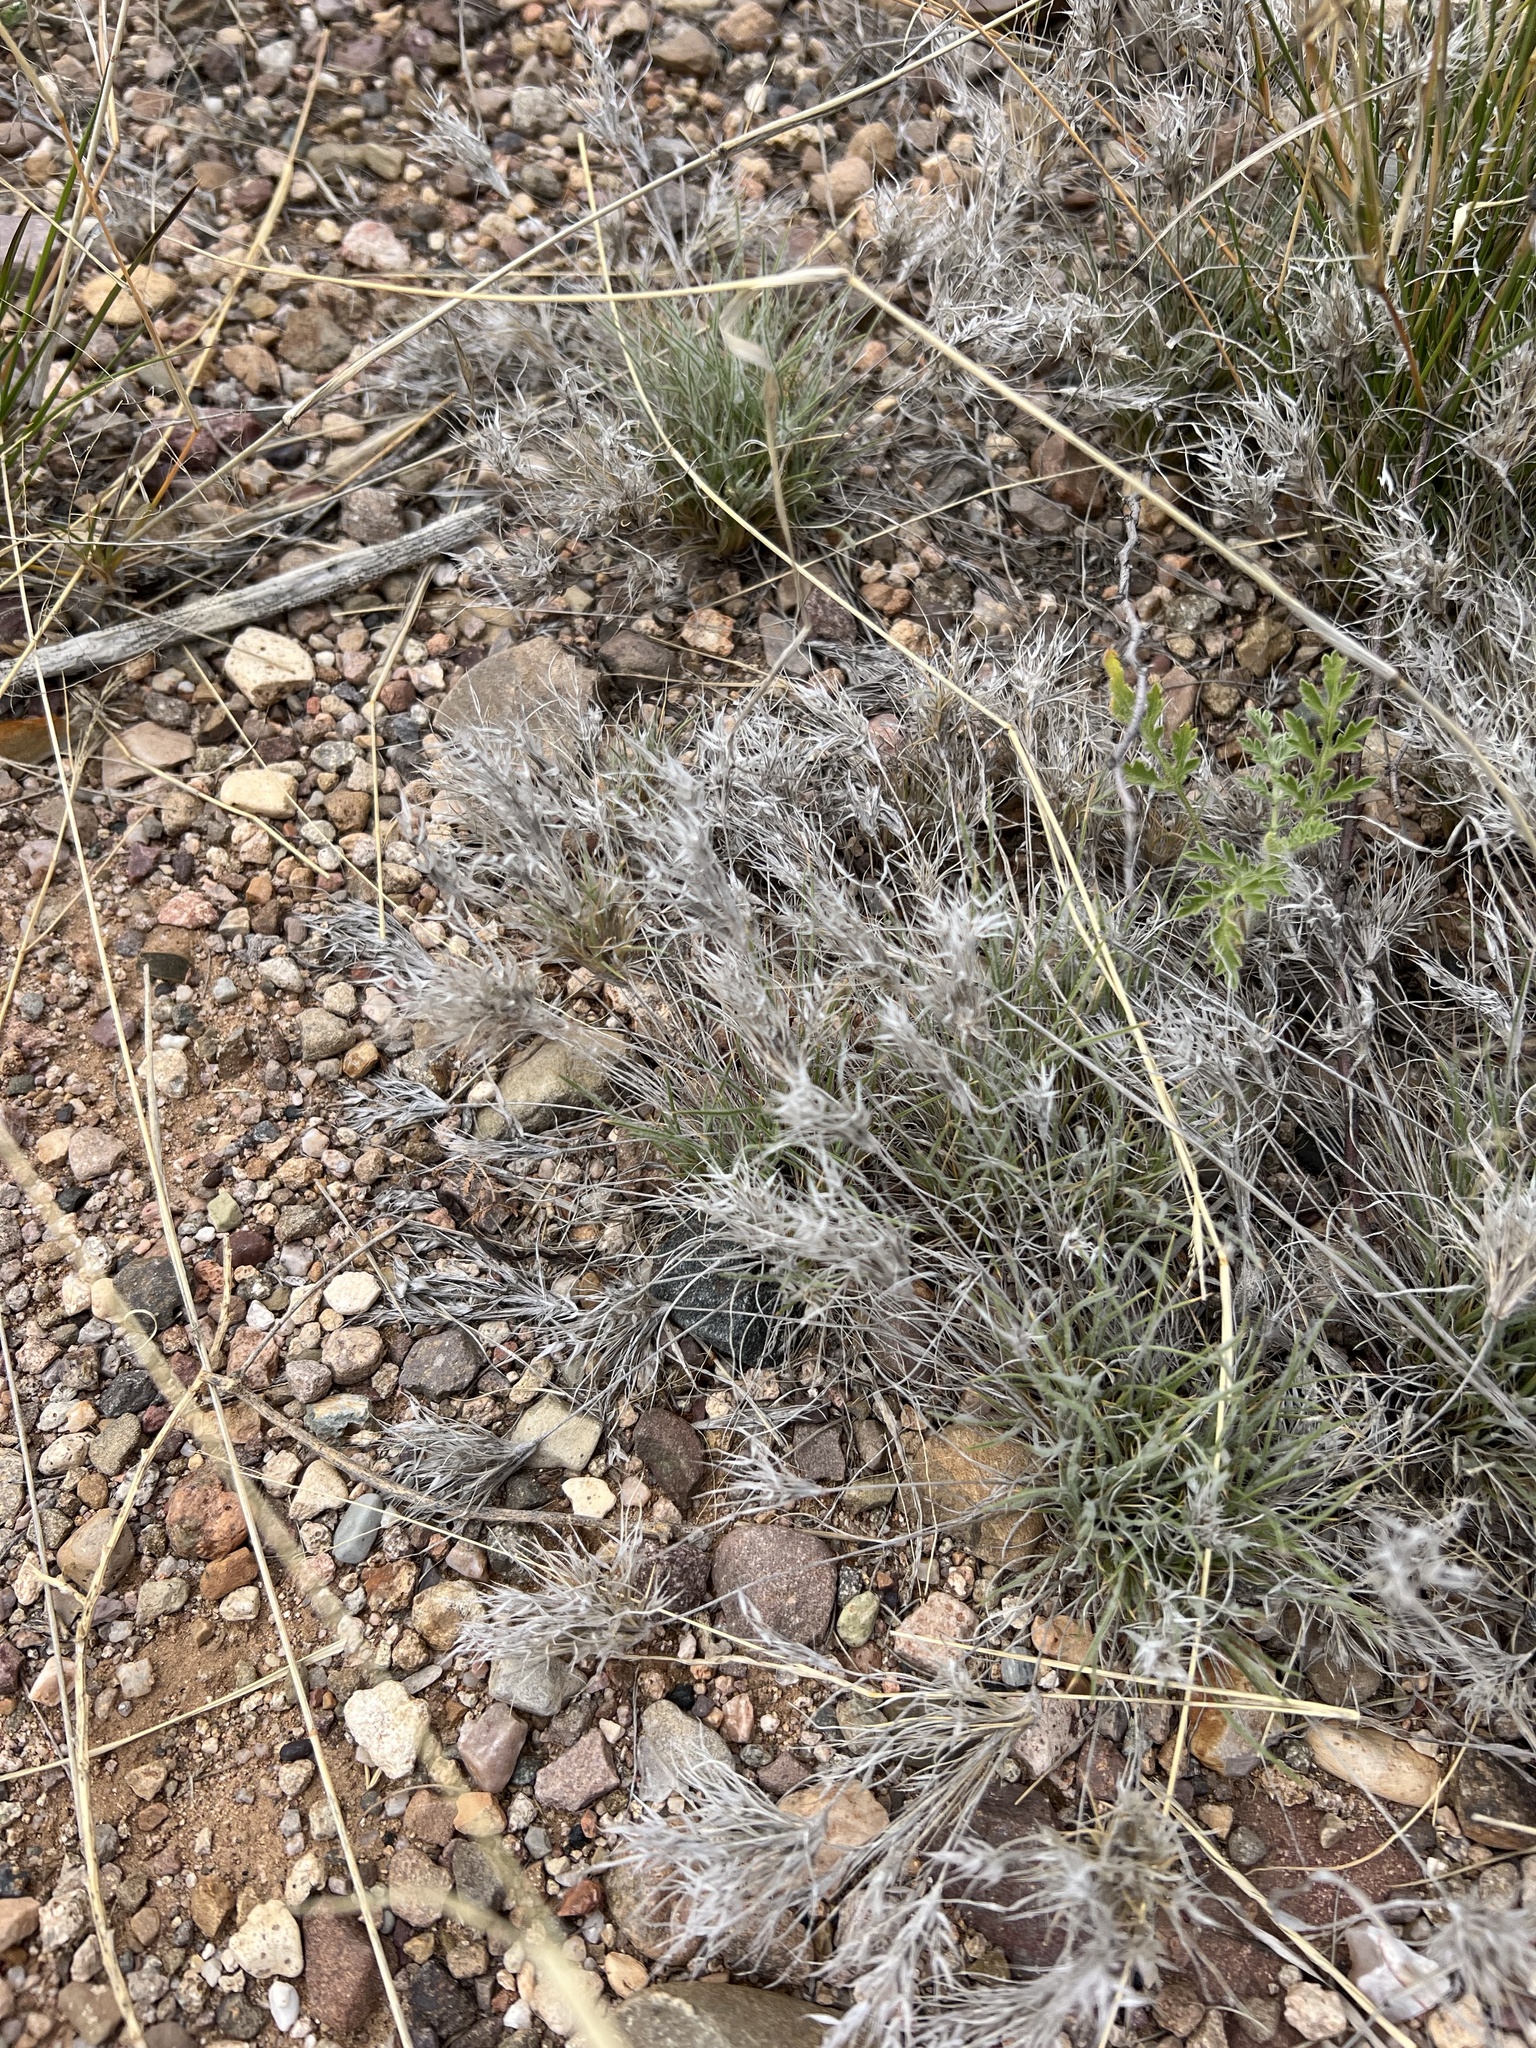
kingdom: Plantae
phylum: Tracheophyta
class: Liliopsida
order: Poales
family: Poaceae
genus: Dasyochloa
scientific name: Dasyochloa pulchella
